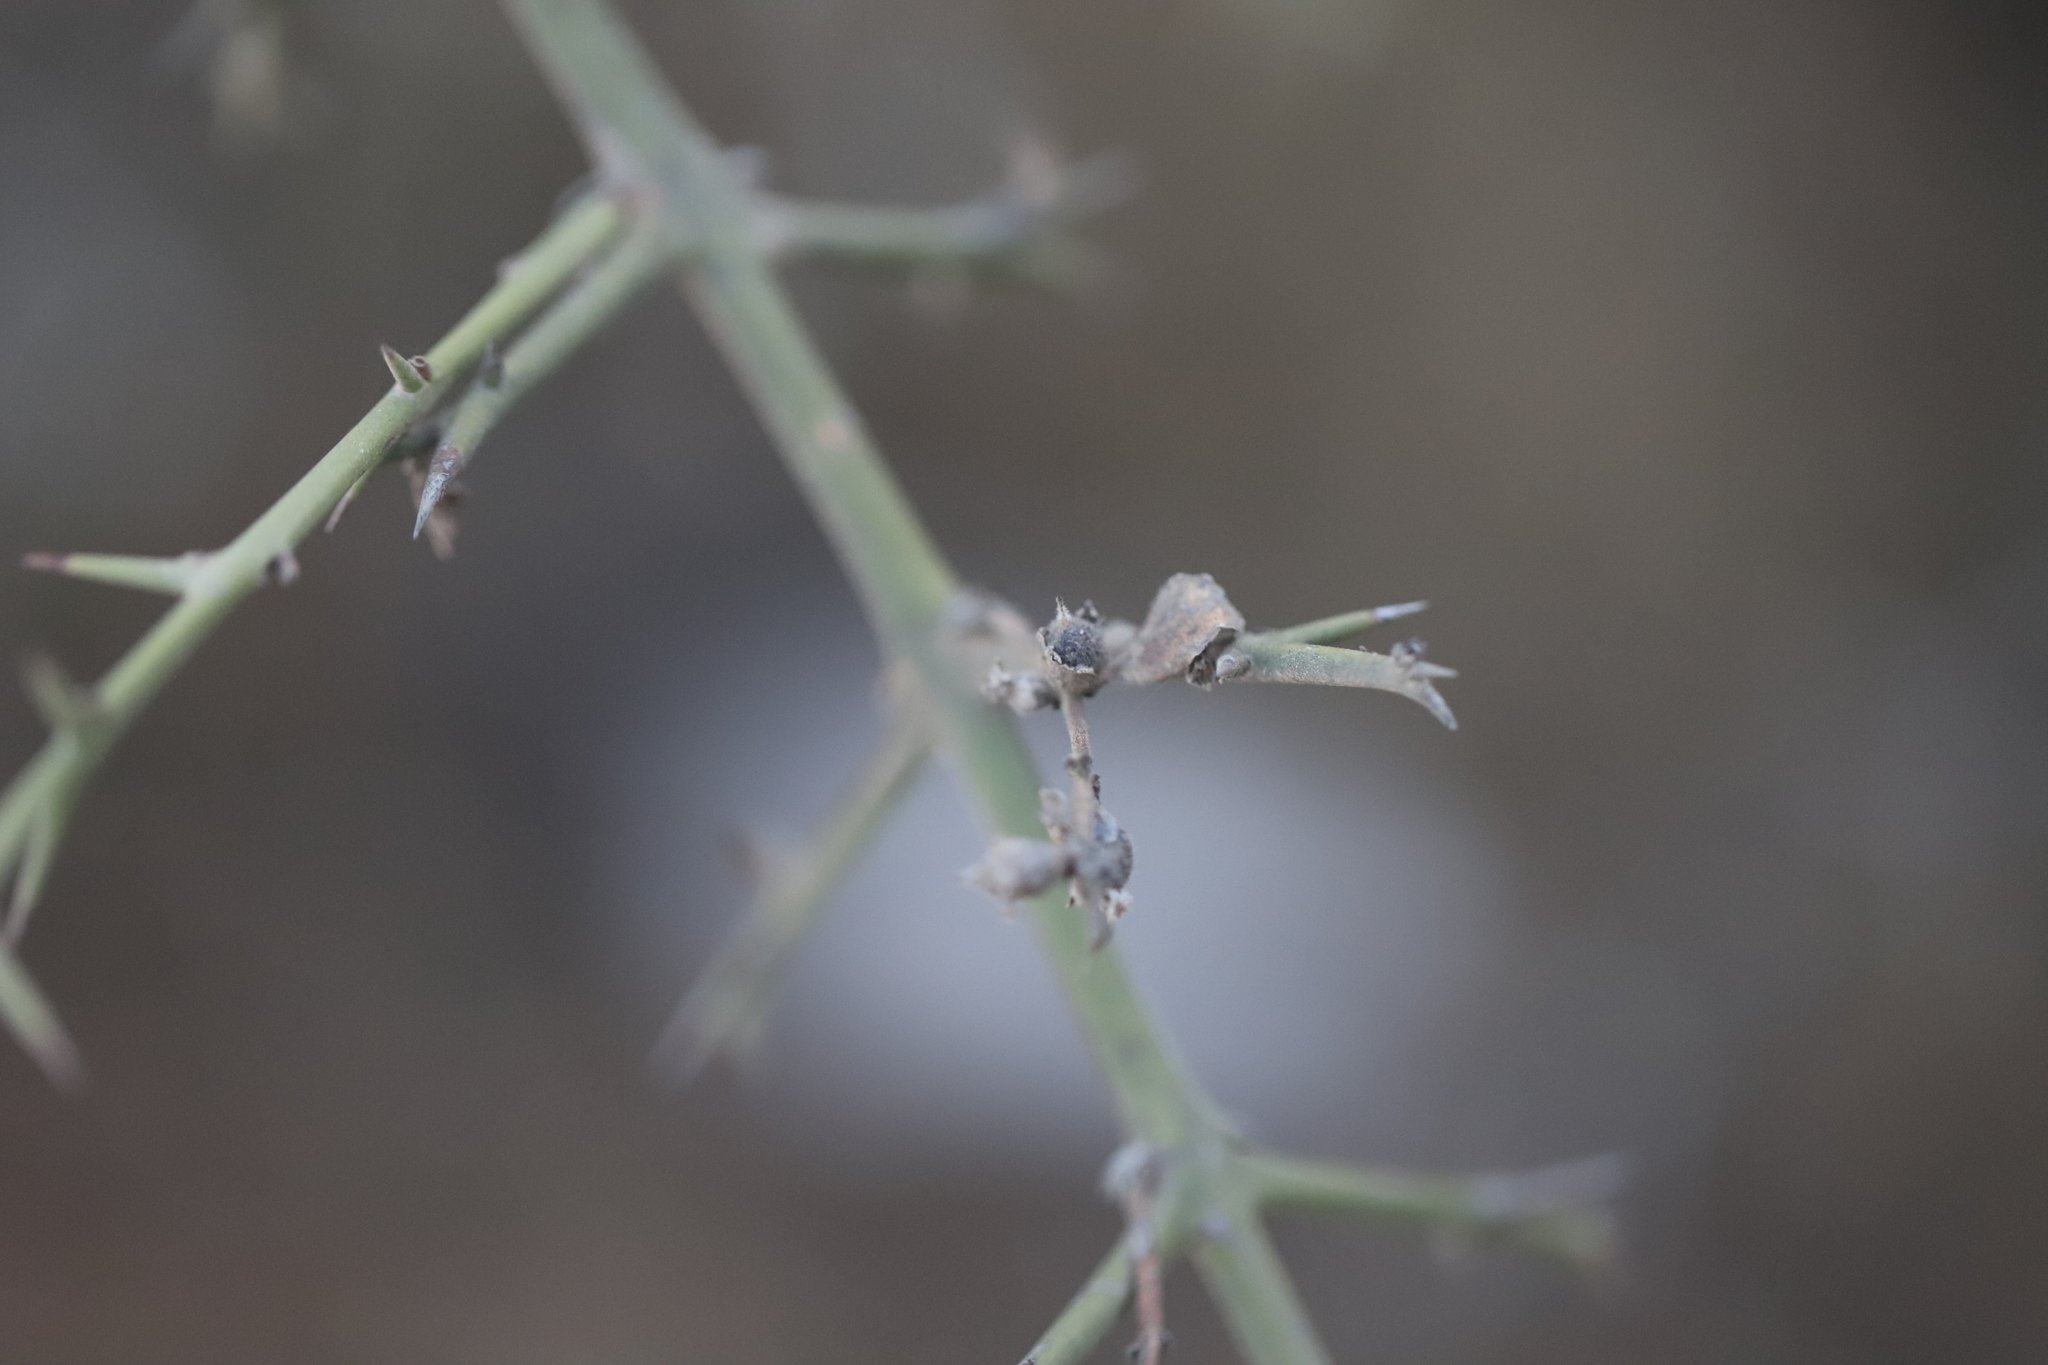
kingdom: Plantae
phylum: Tracheophyta
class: Magnoliopsida
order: Rosales
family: Rhamnaceae
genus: Colletia
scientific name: Colletia spinosissima
